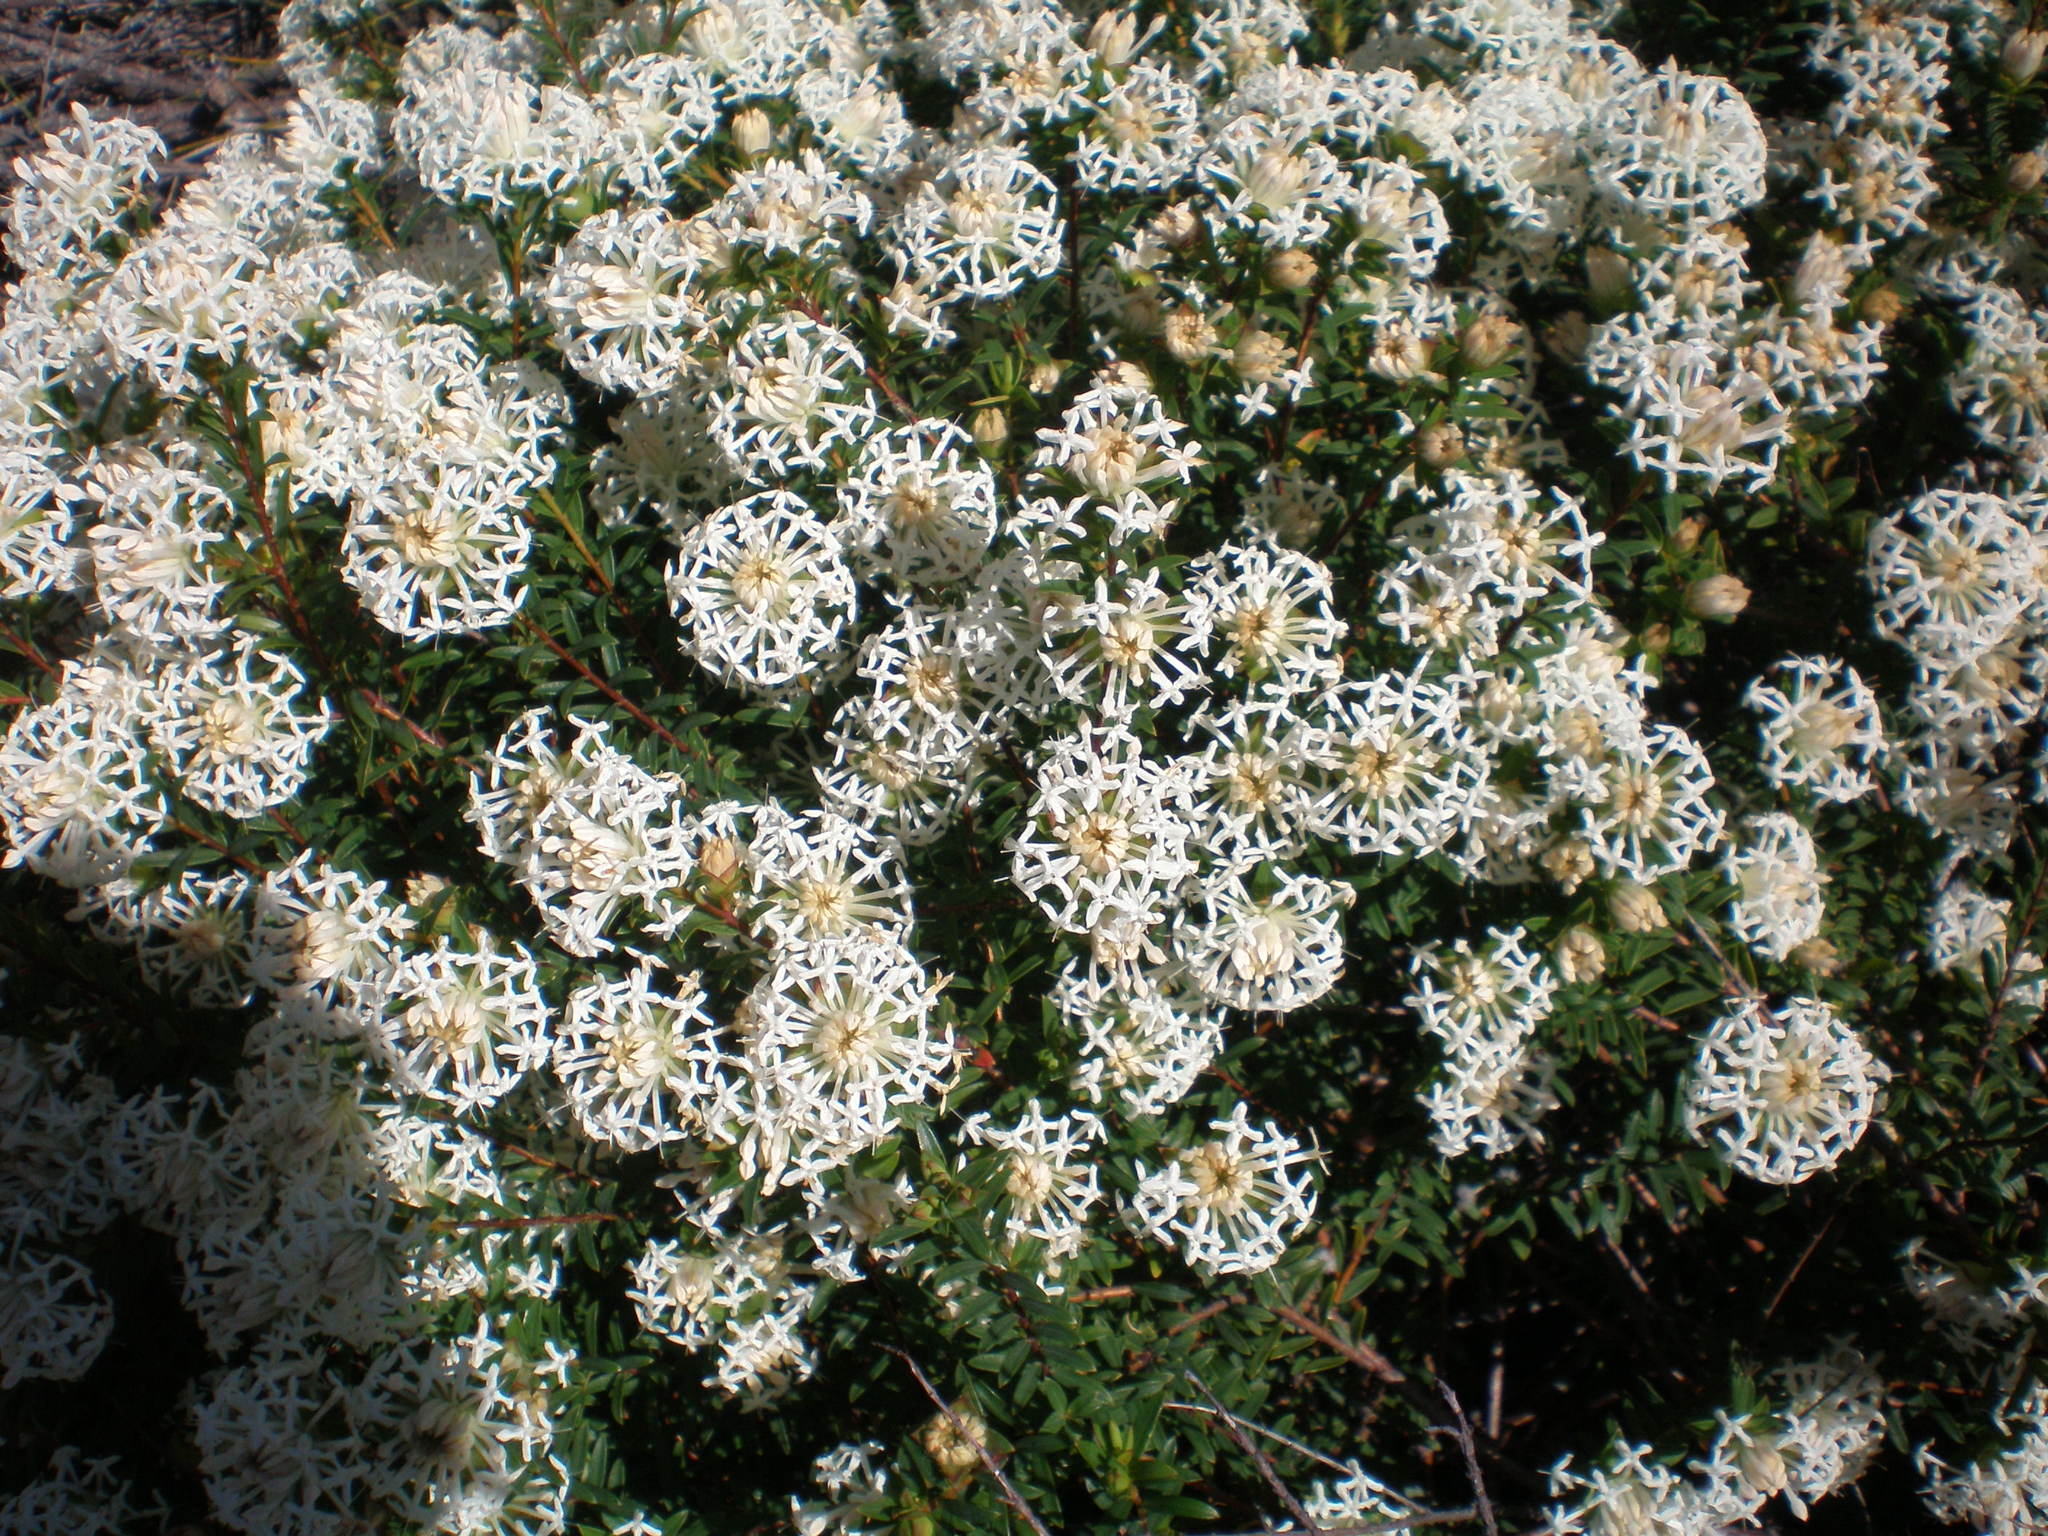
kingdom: Plantae
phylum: Tracheophyta
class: Magnoliopsida
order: Malvales
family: Thymelaeaceae
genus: Pimelea
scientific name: Pimelea linifolia
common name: Queen-of-the-bush
